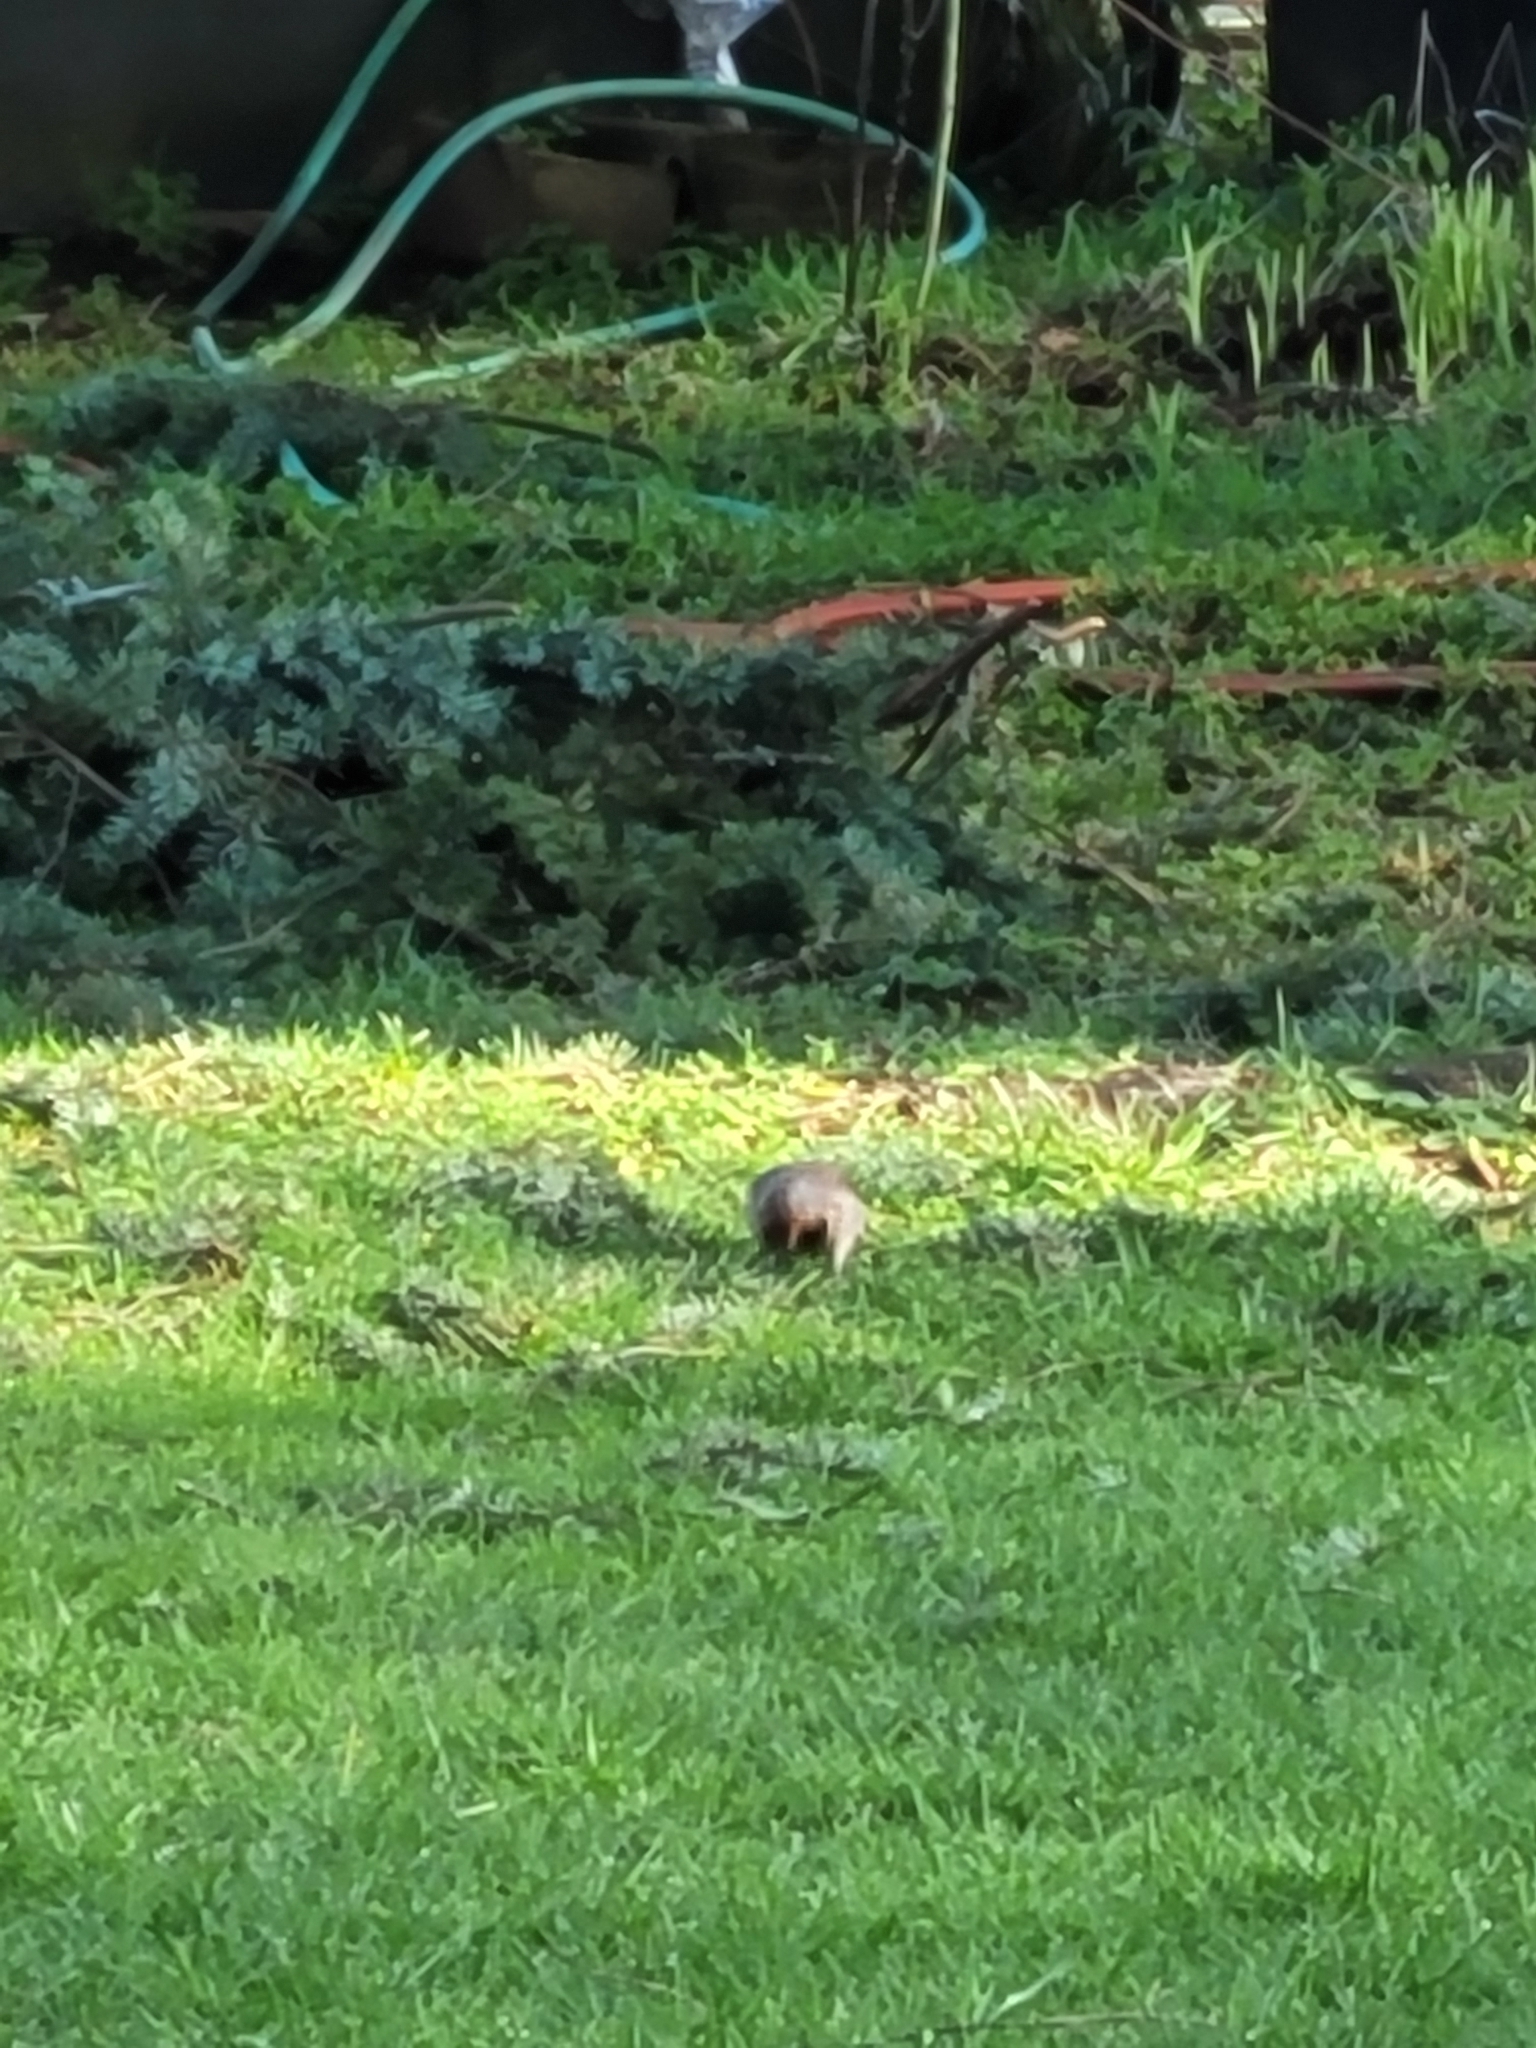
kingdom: Animalia
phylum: Chordata
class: Aves
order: Piciformes
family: Picidae
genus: Colaptes
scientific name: Colaptes auratus
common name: Northern flicker
